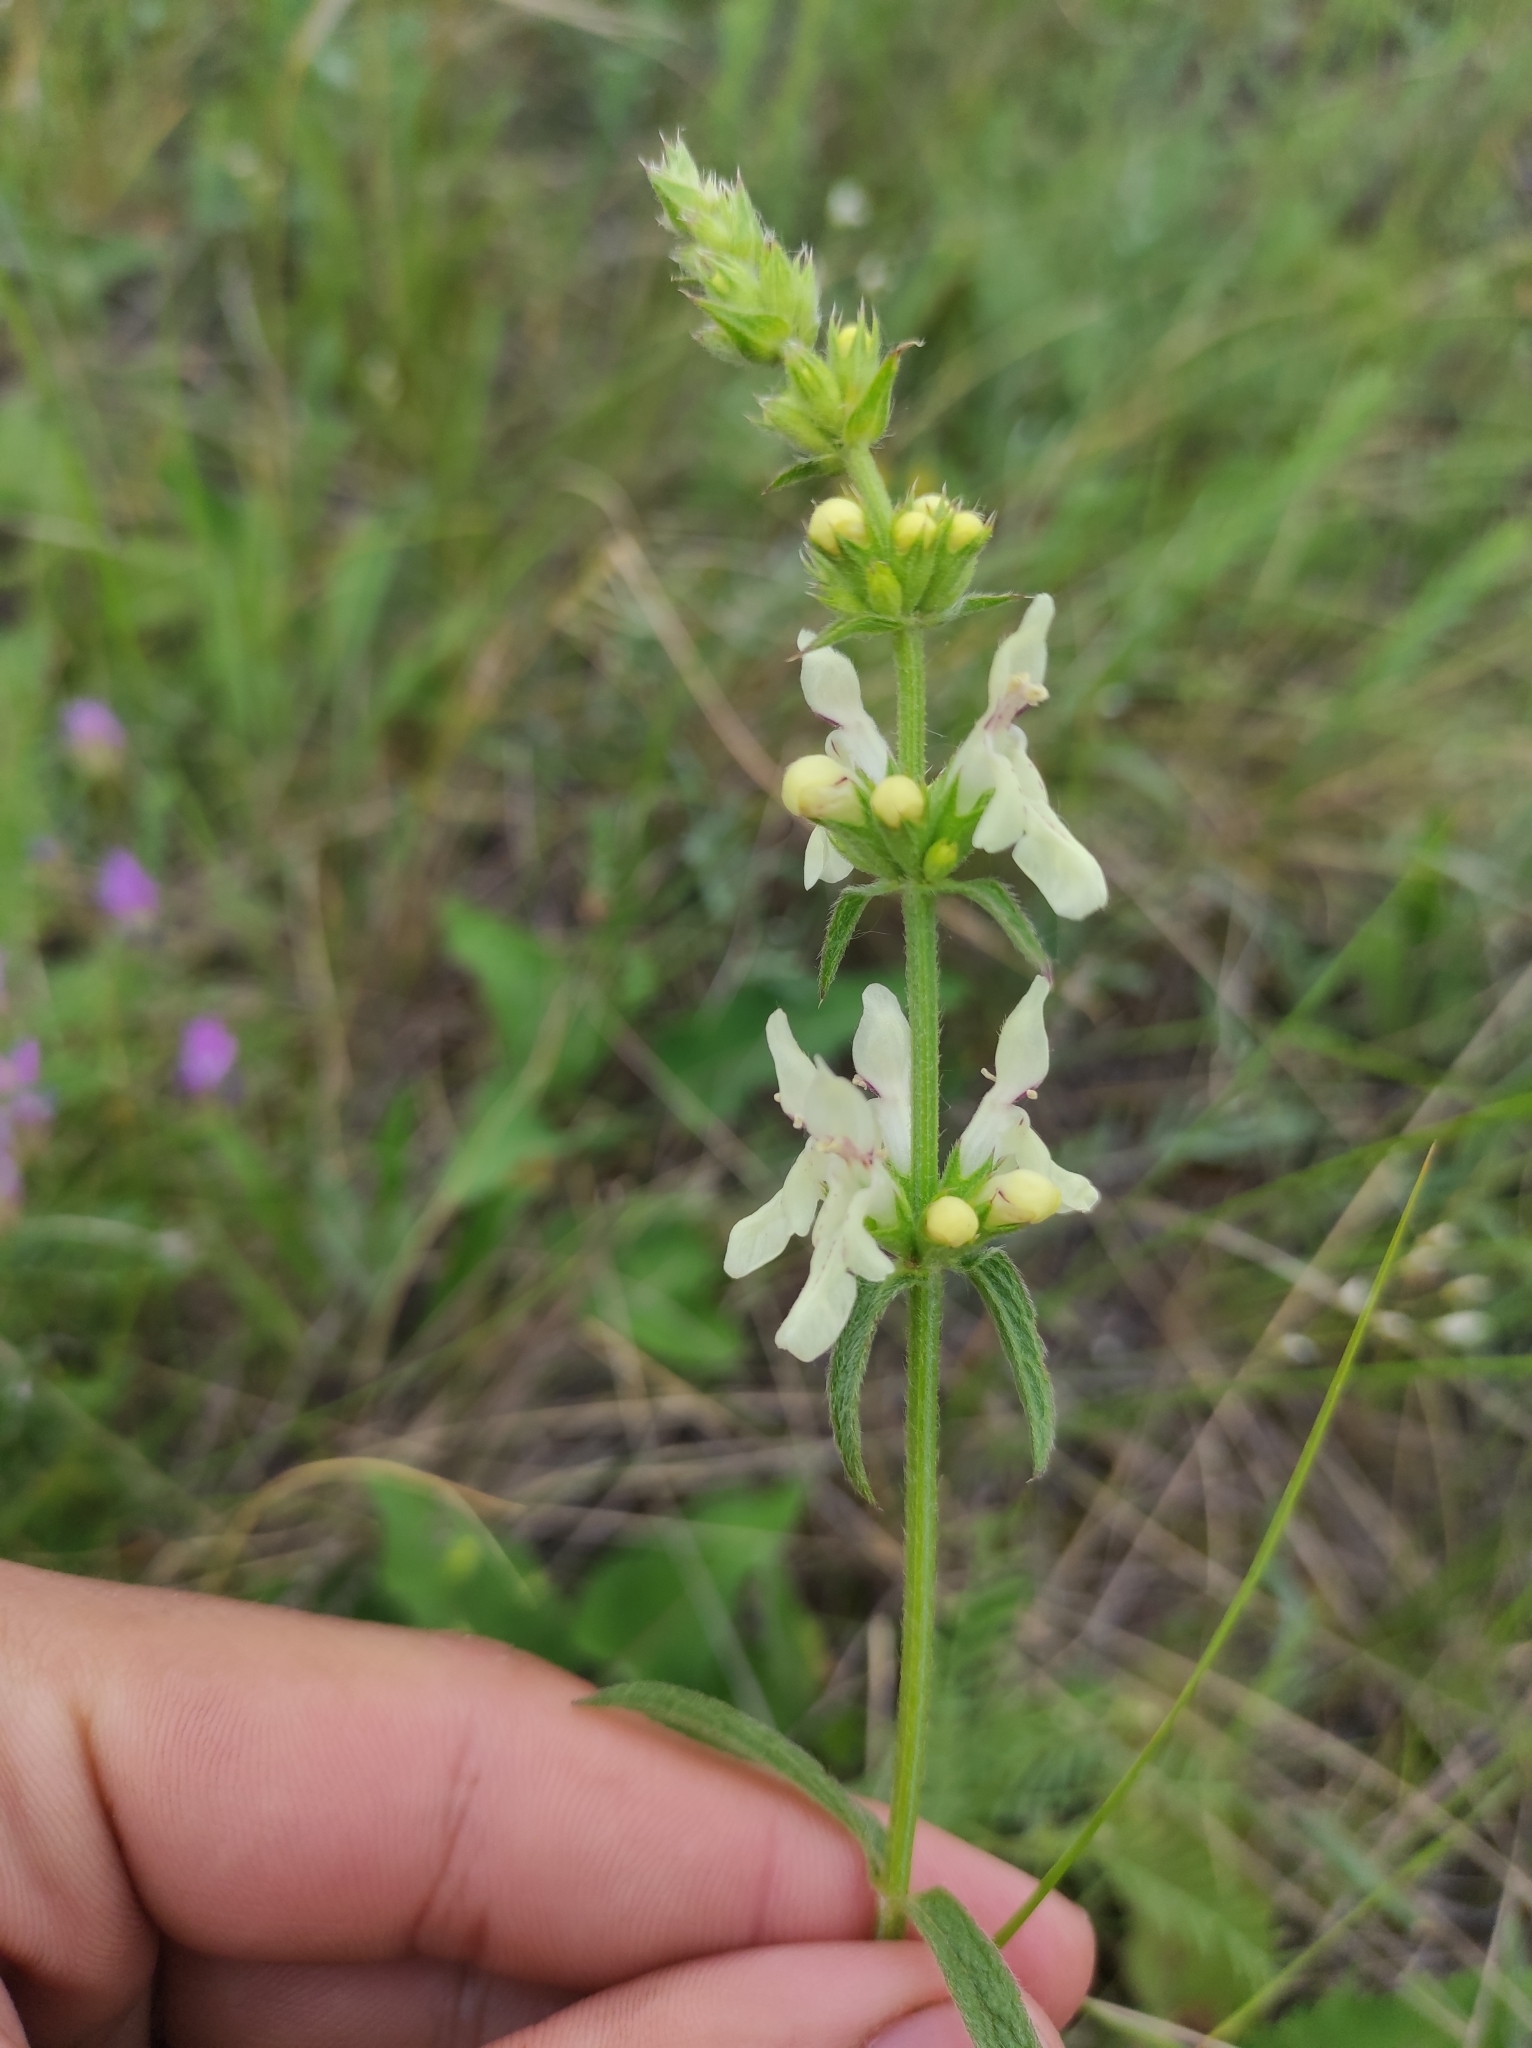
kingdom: Plantae
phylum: Tracheophyta
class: Magnoliopsida
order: Lamiales
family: Lamiaceae
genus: Stachys
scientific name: Stachys recta
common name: Perennial yellow-woundwort
